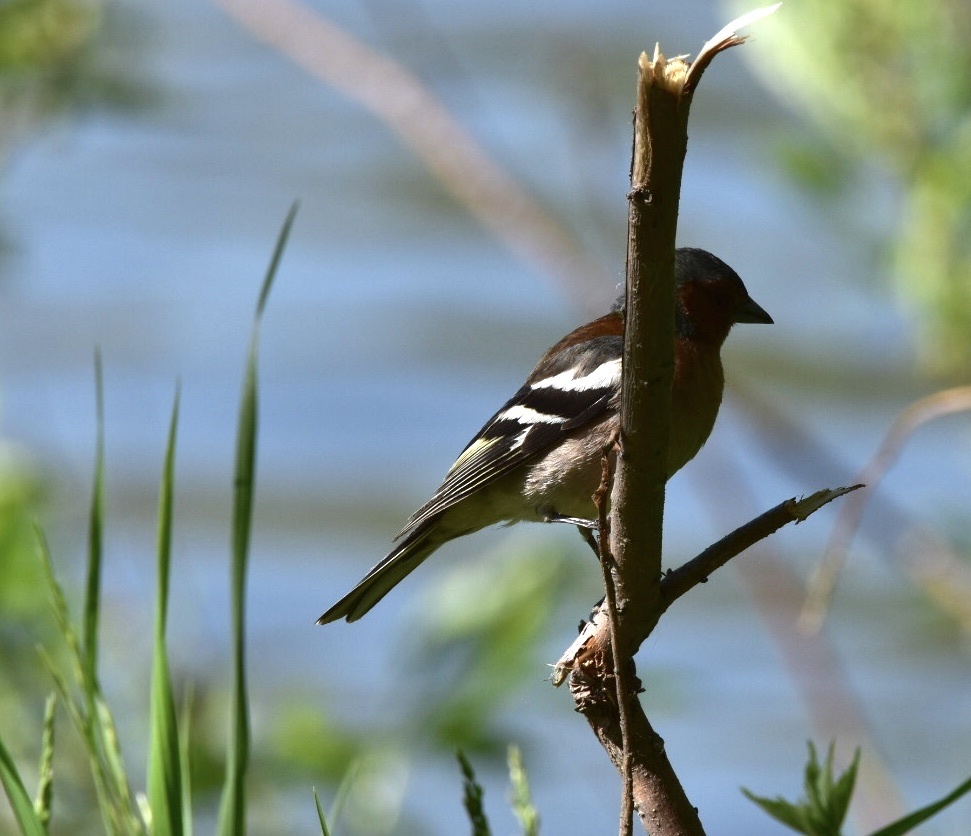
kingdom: Animalia
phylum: Chordata
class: Aves
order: Passeriformes
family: Fringillidae
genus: Fringilla
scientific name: Fringilla coelebs
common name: Common chaffinch
